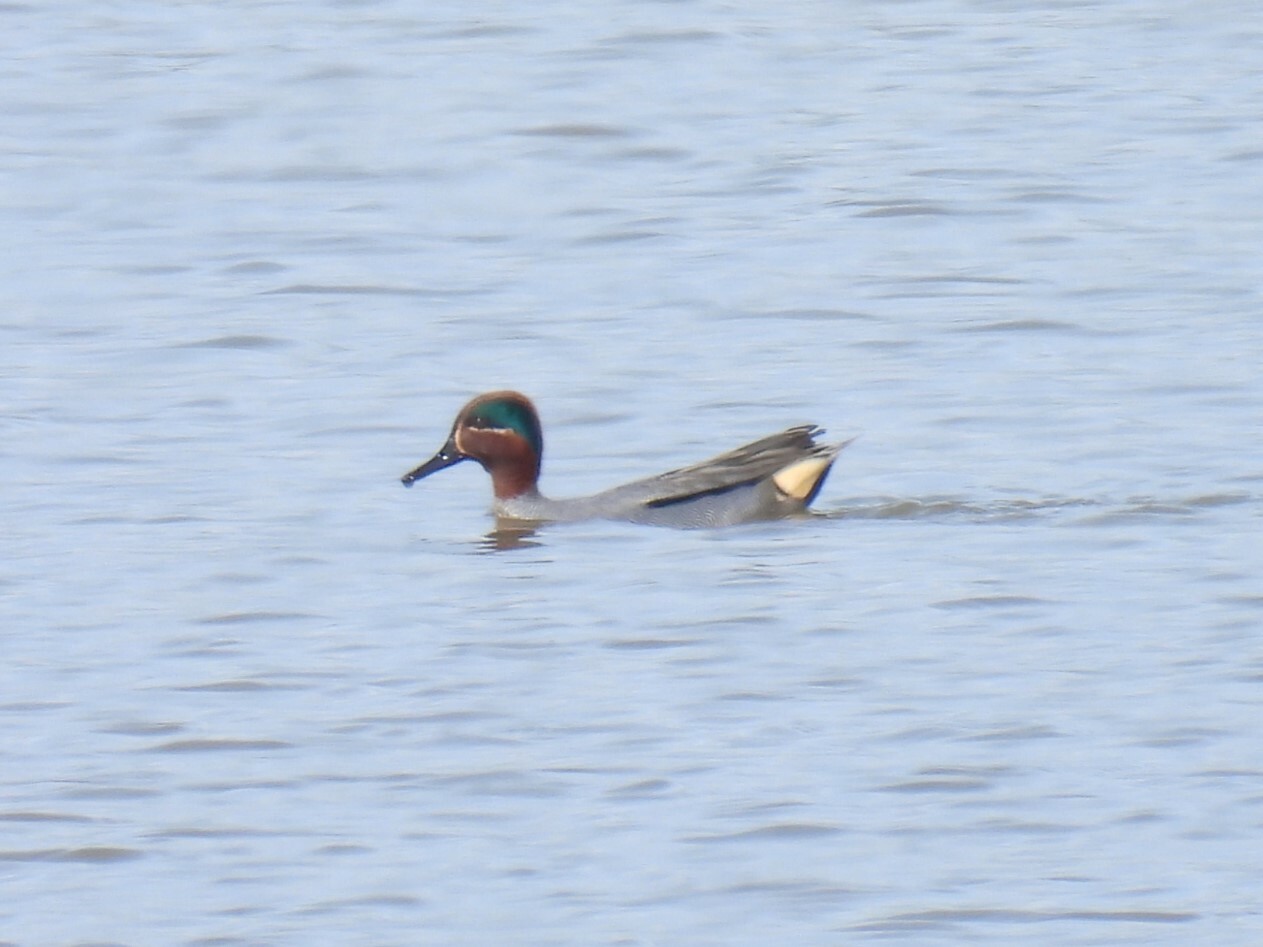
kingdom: Animalia
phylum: Chordata
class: Aves
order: Anseriformes
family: Anatidae
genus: Anas
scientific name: Anas crecca
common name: Eurasian teal
